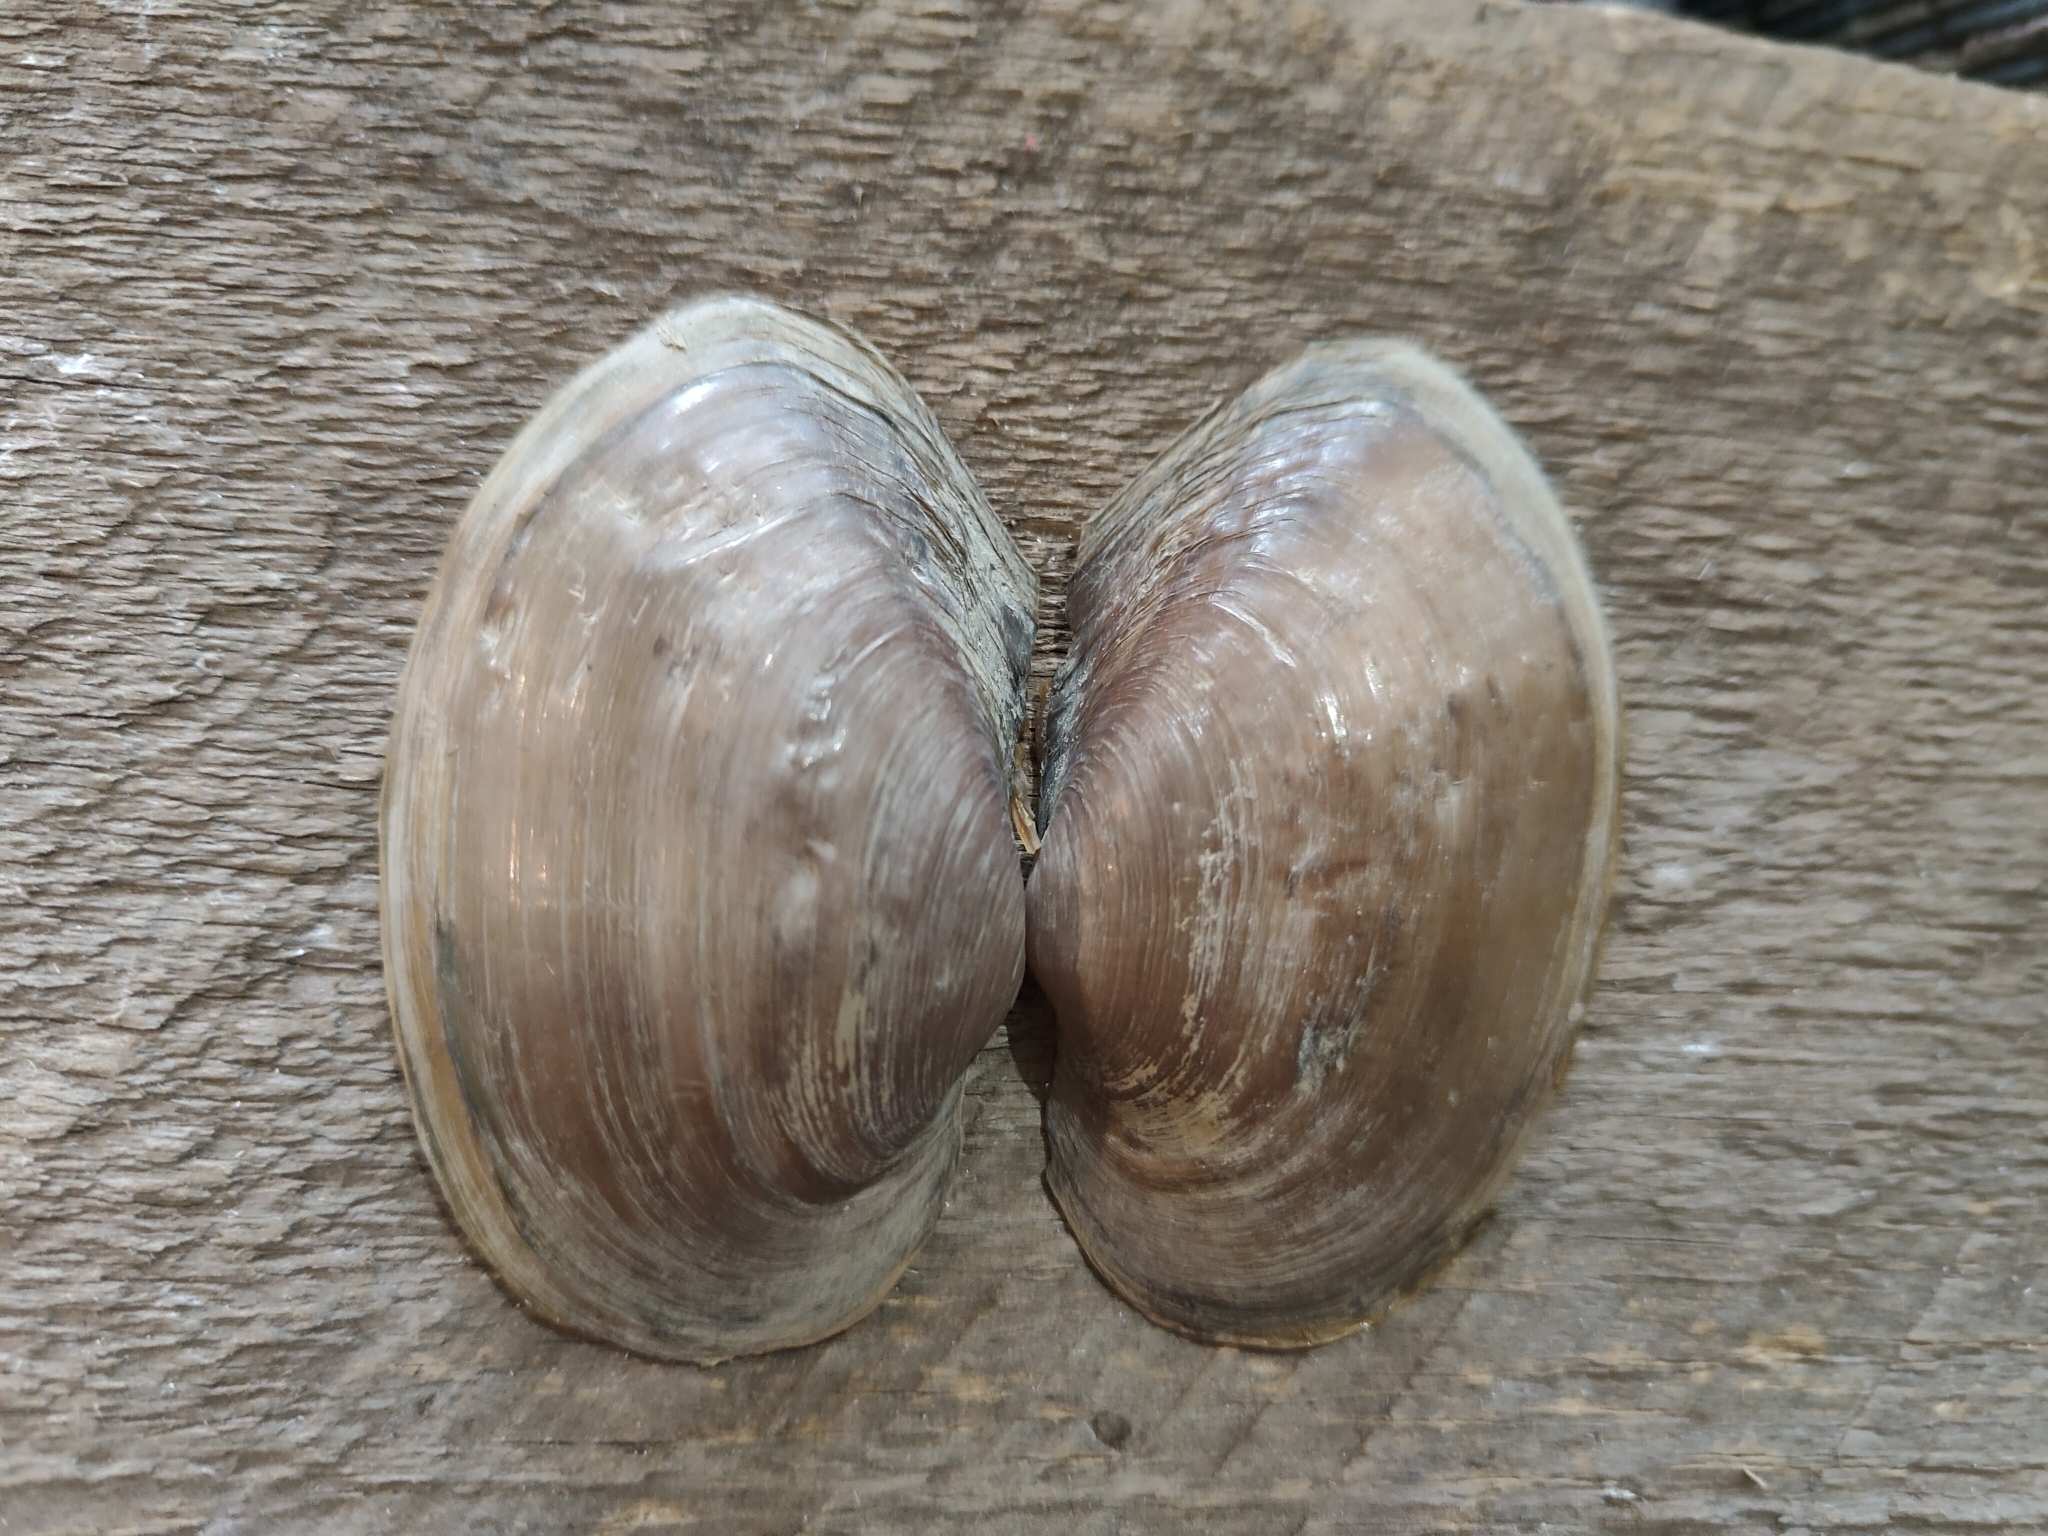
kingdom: Animalia
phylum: Mollusca
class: Bivalvia
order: Unionida
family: Unionidae
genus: Pyganodon
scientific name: Pyganodon grandis
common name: Giant floater
